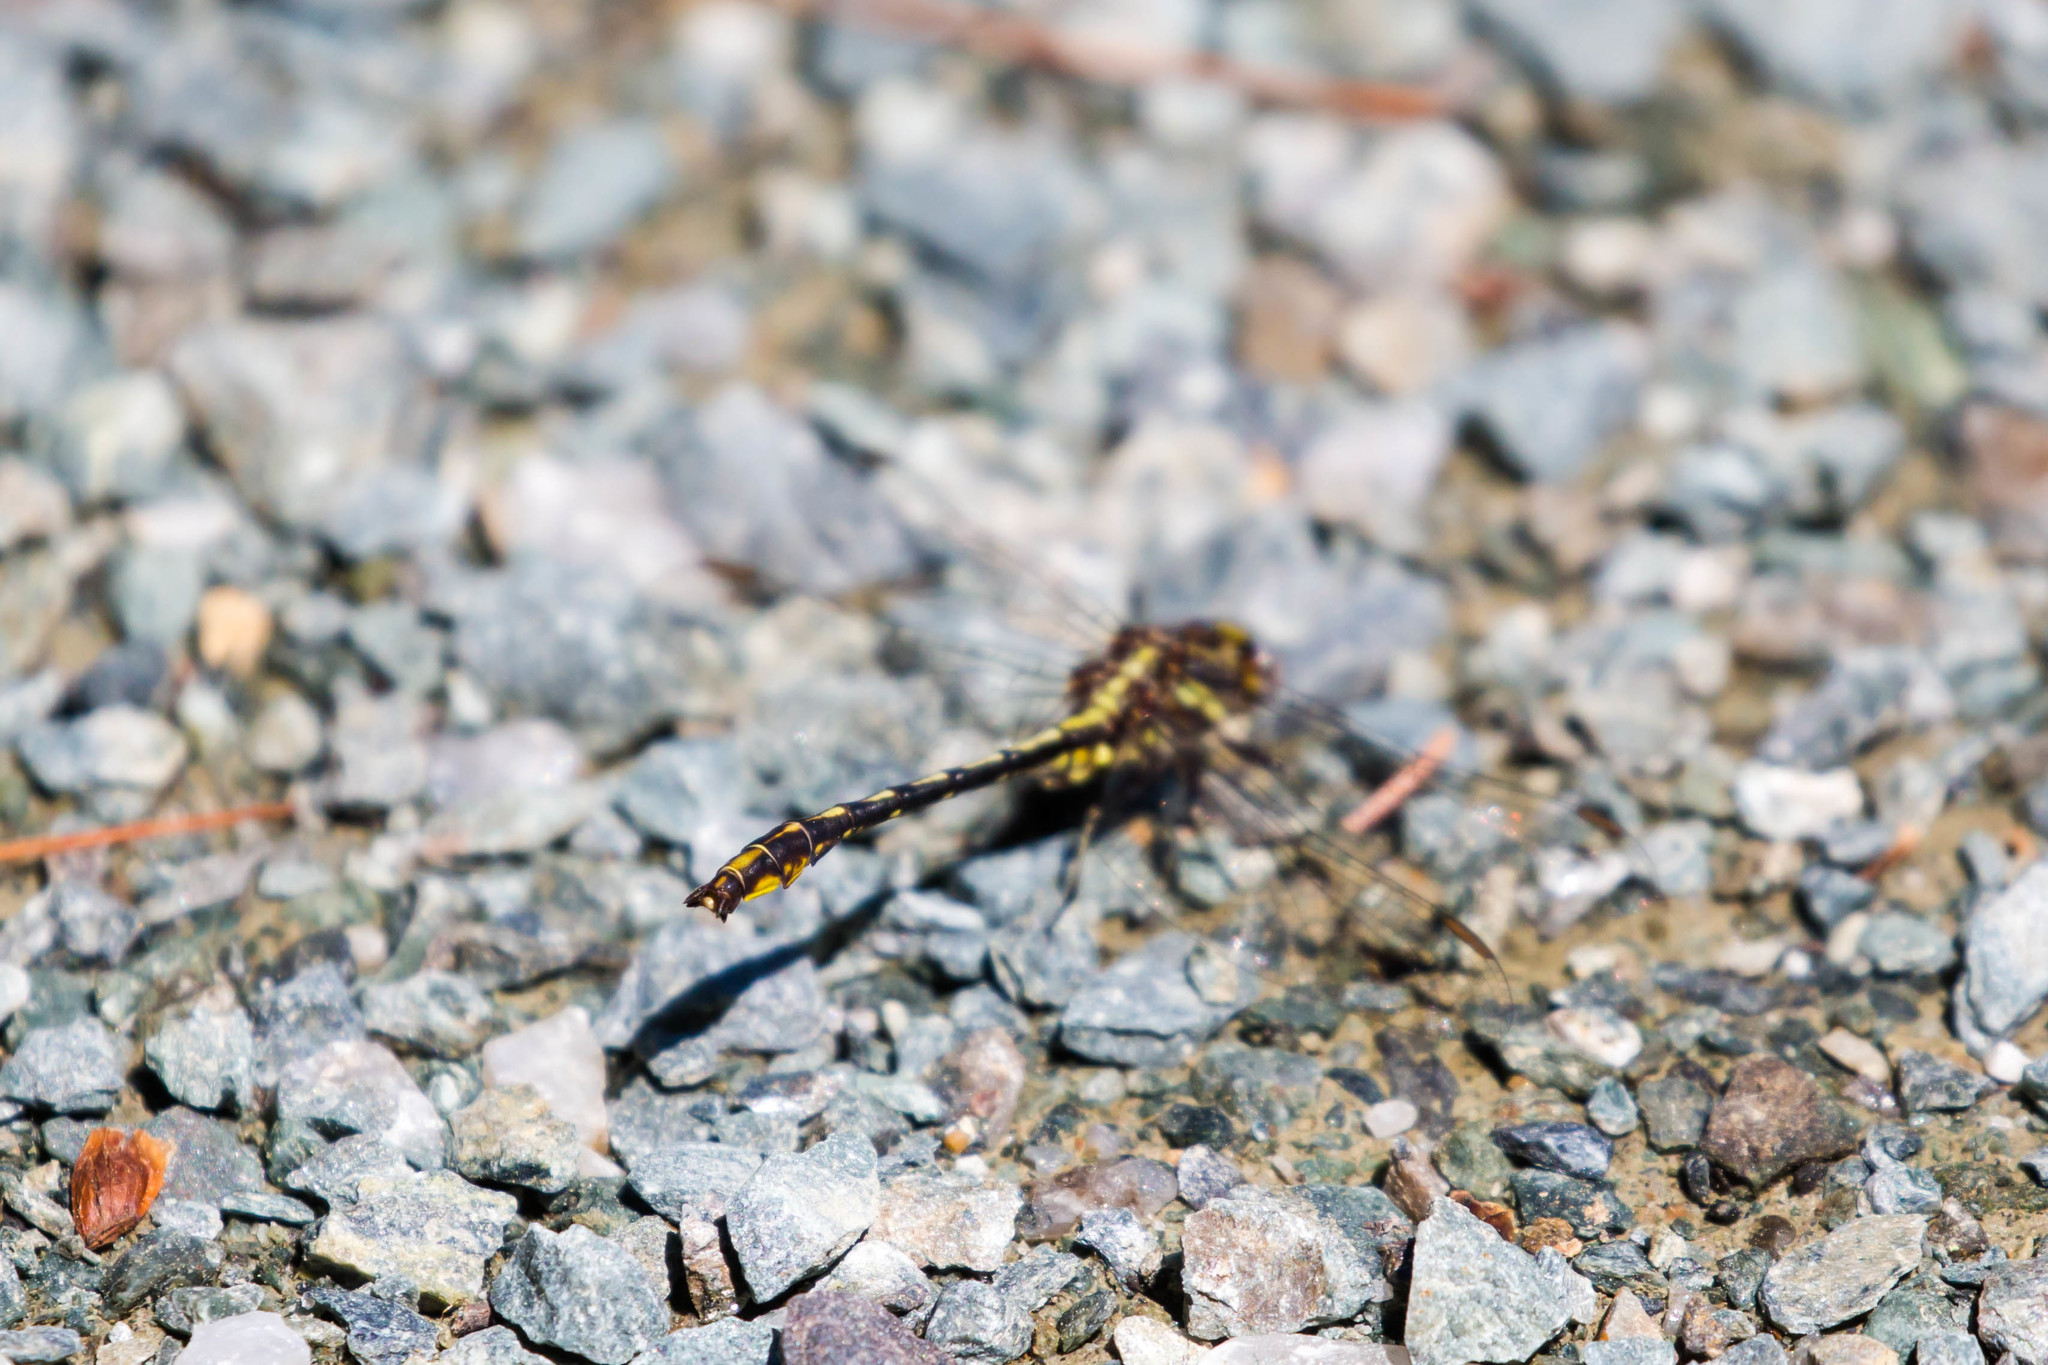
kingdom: Animalia
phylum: Arthropoda
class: Insecta
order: Odonata
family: Gomphidae
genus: Phanogomphus
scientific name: Phanogomphus exilis
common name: Lancet clubtail
